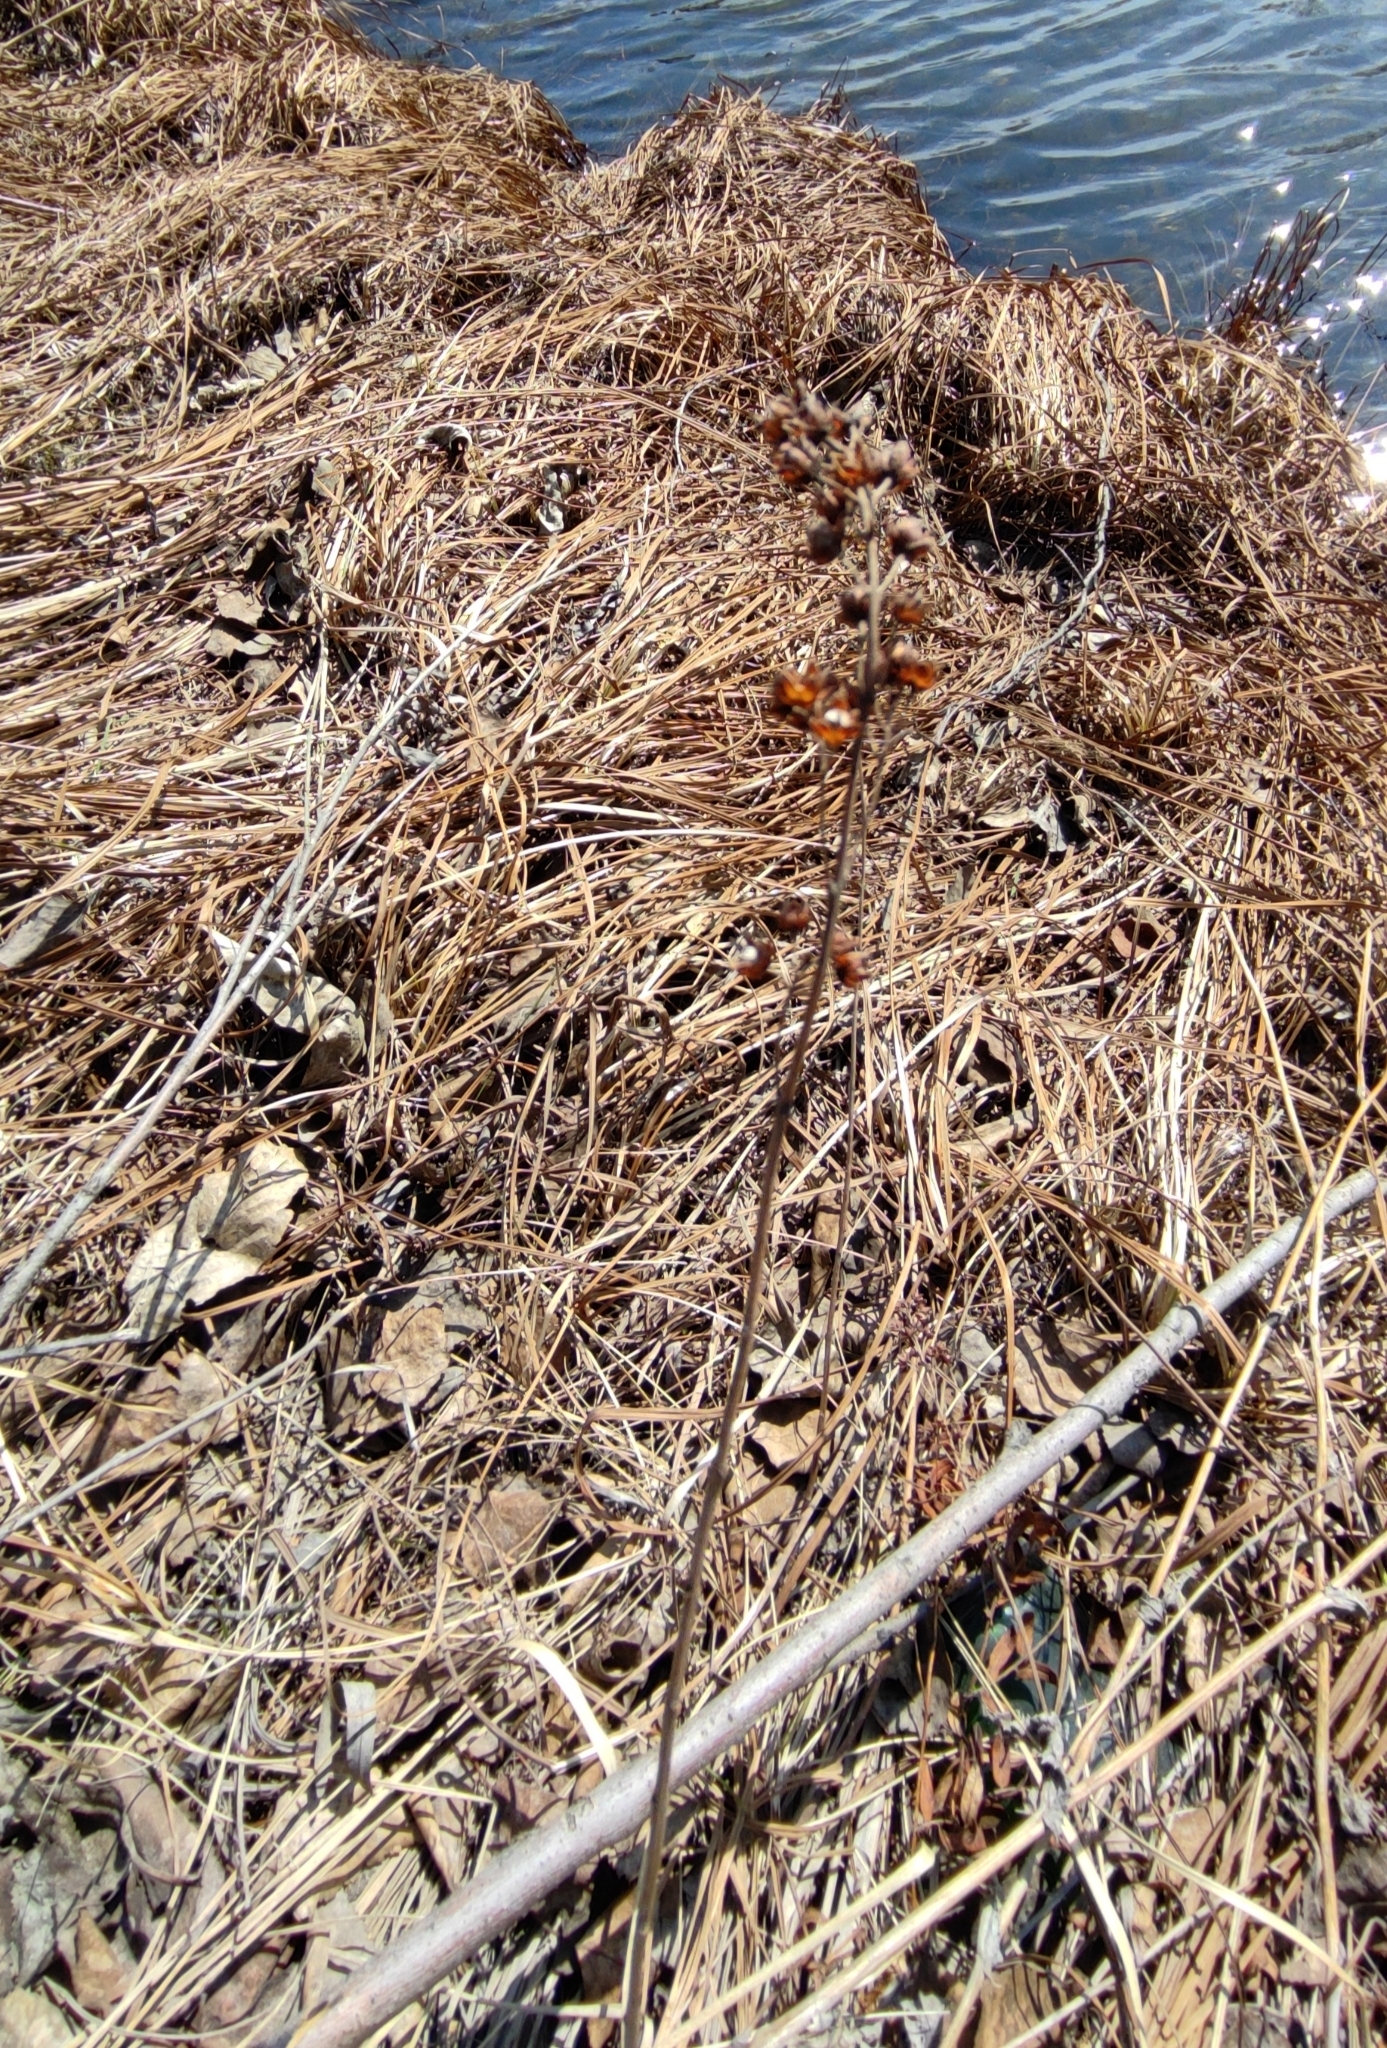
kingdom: Plantae
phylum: Tracheophyta
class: Magnoliopsida
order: Ericales
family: Primulaceae
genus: Lysimachia
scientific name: Lysimachia davurica
